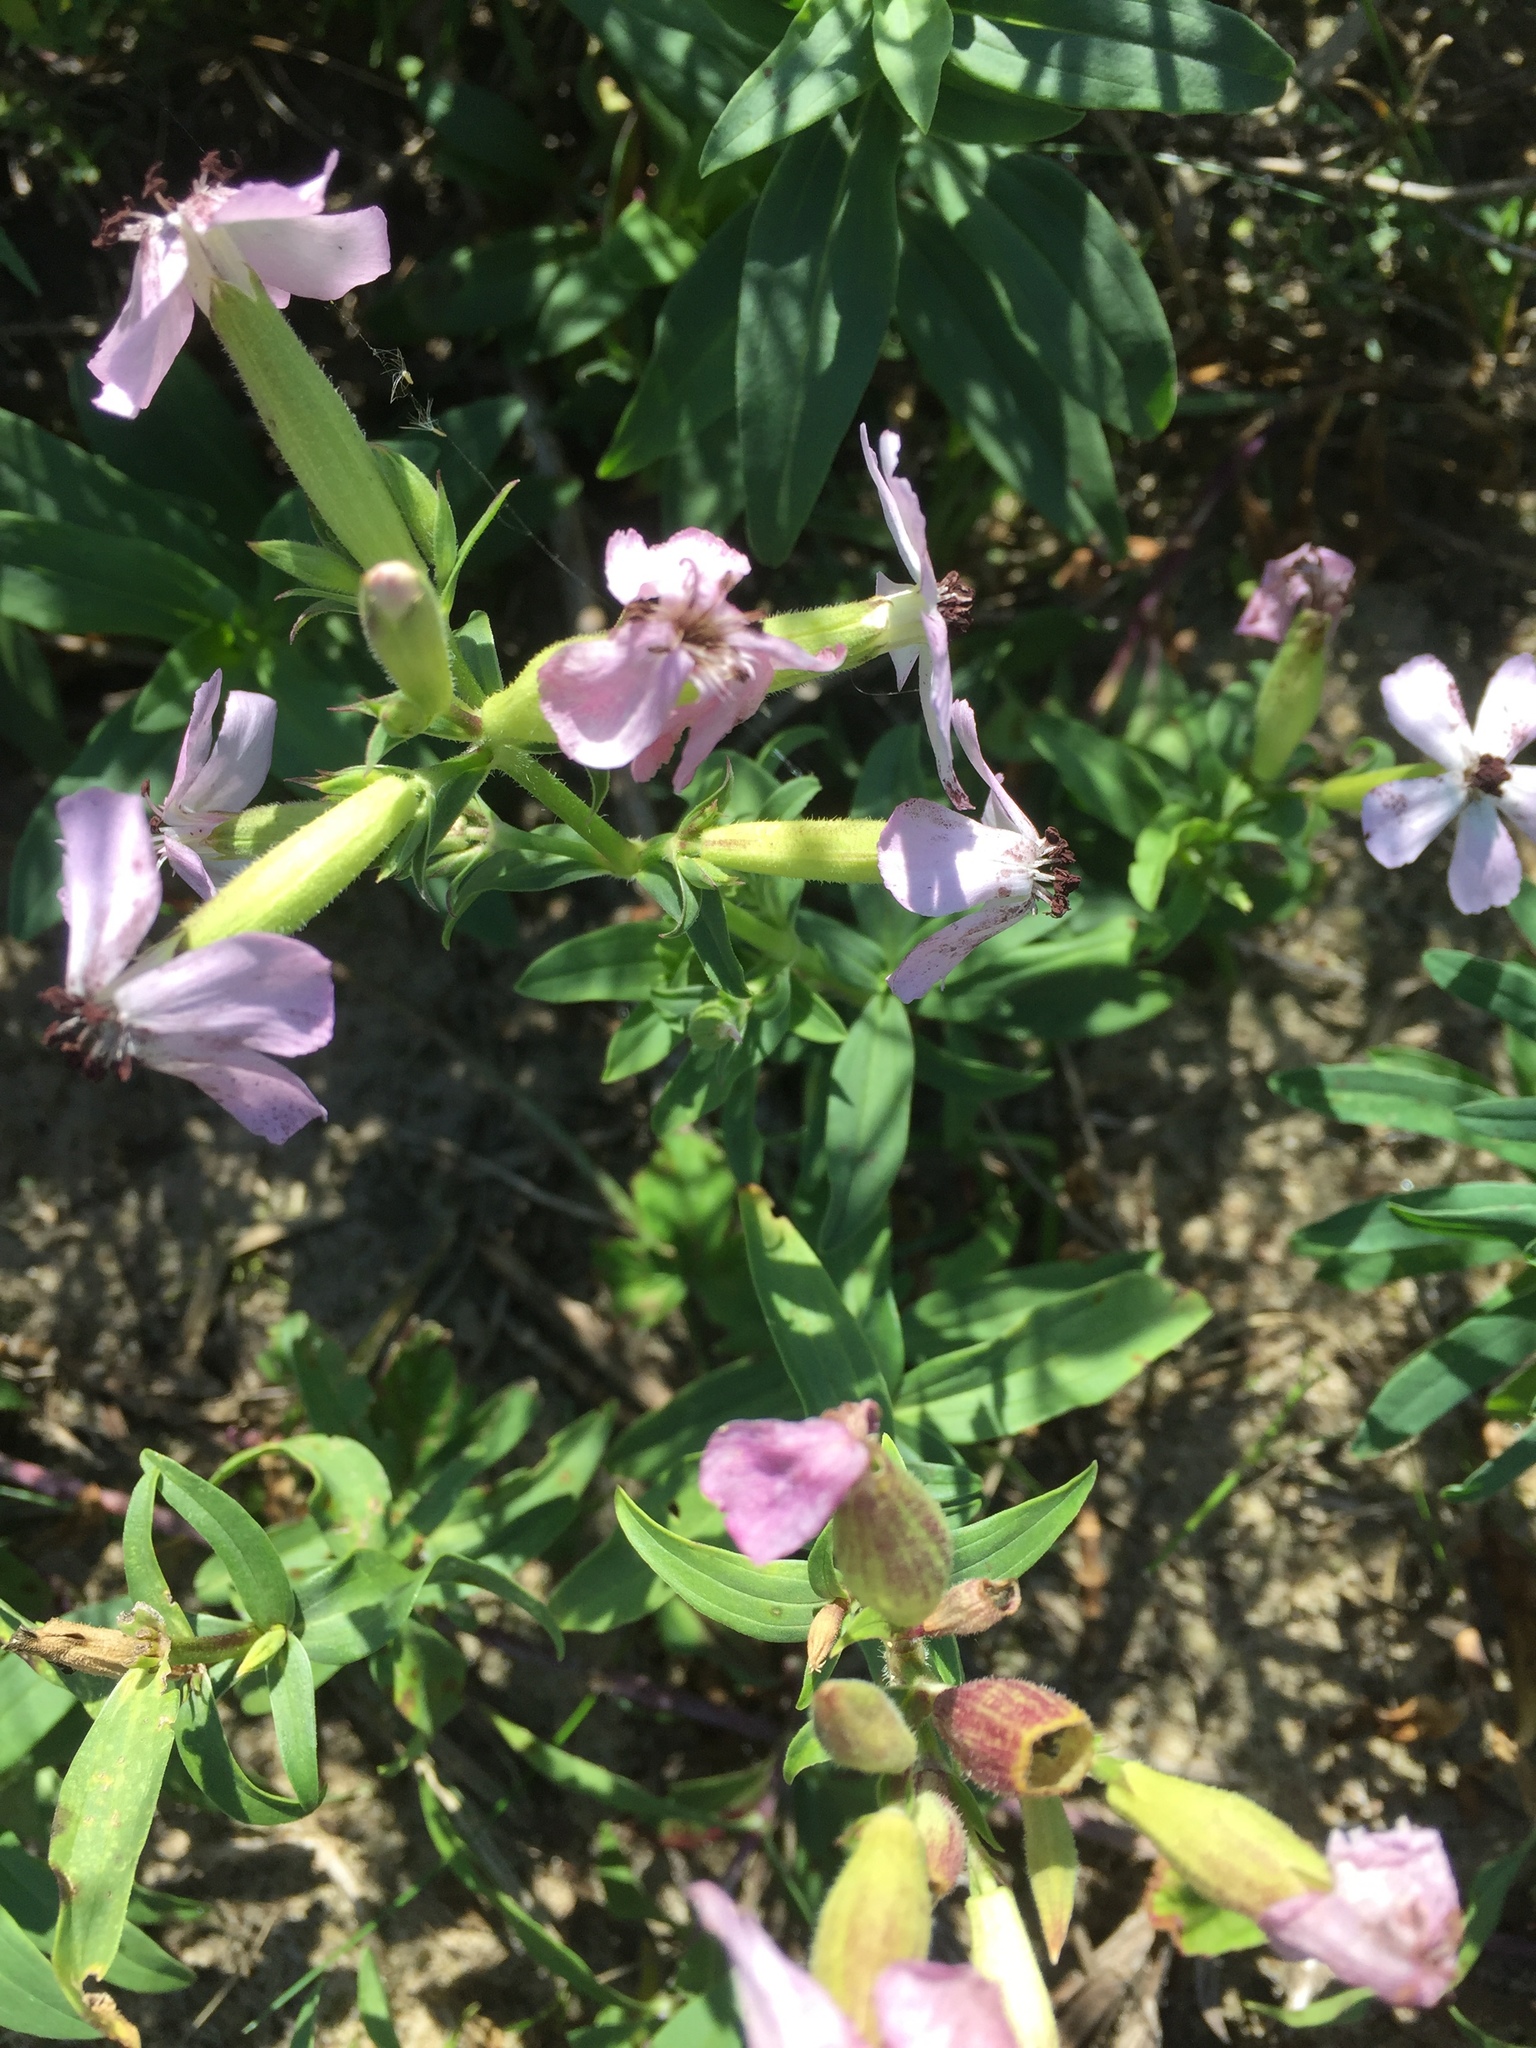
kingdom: Plantae
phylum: Tracheophyta
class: Magnoliopsida
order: Caryophyllales
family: Caryophyllaceae
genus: Saponaria
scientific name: Saponaria officinalis
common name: Soapwort
